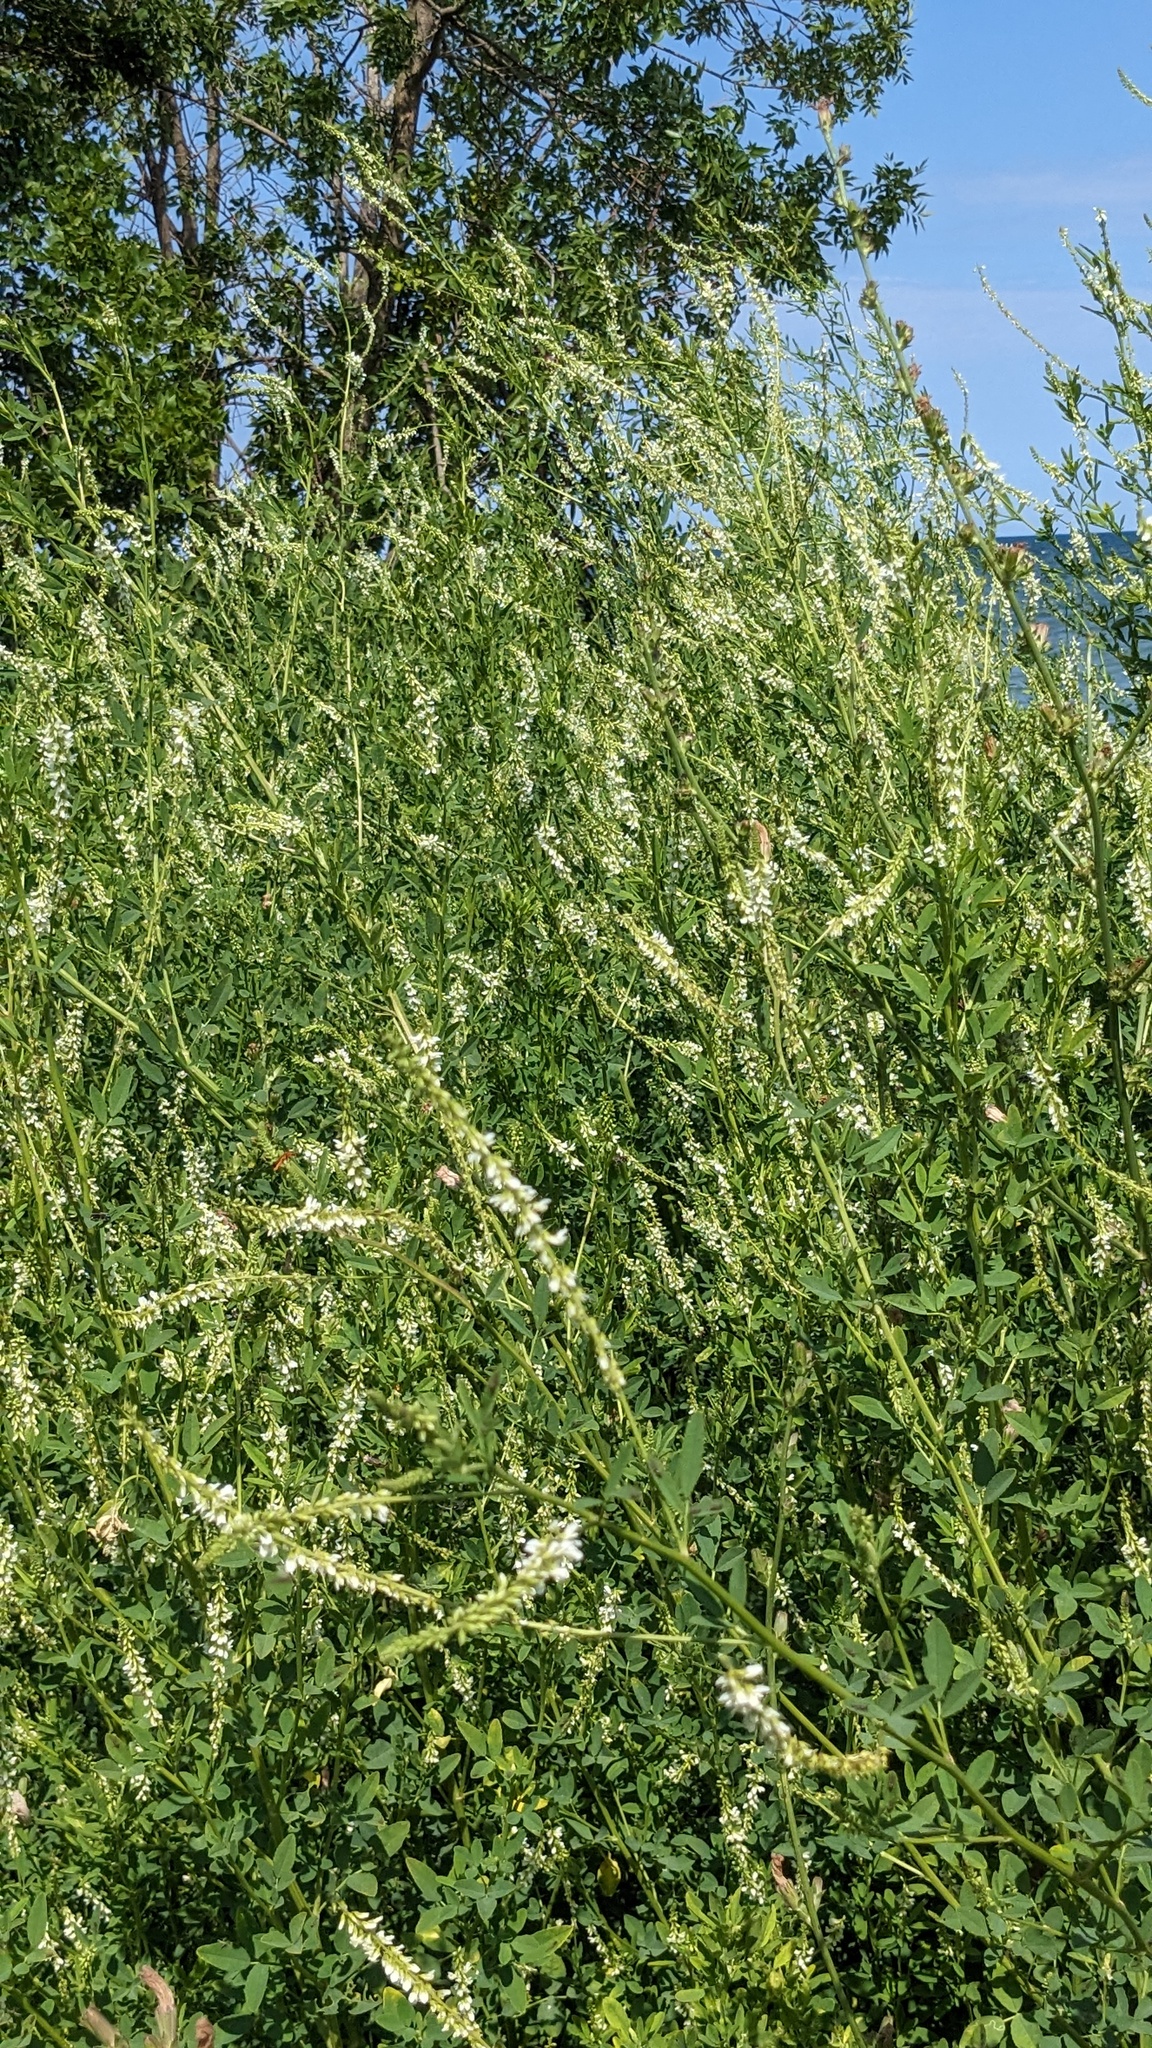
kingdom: Plantae
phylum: Tracheophyta
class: Magnoliopsida
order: Fabales
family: Fabaceae
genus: Melilotus
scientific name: Melilotus albus
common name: White melilot
